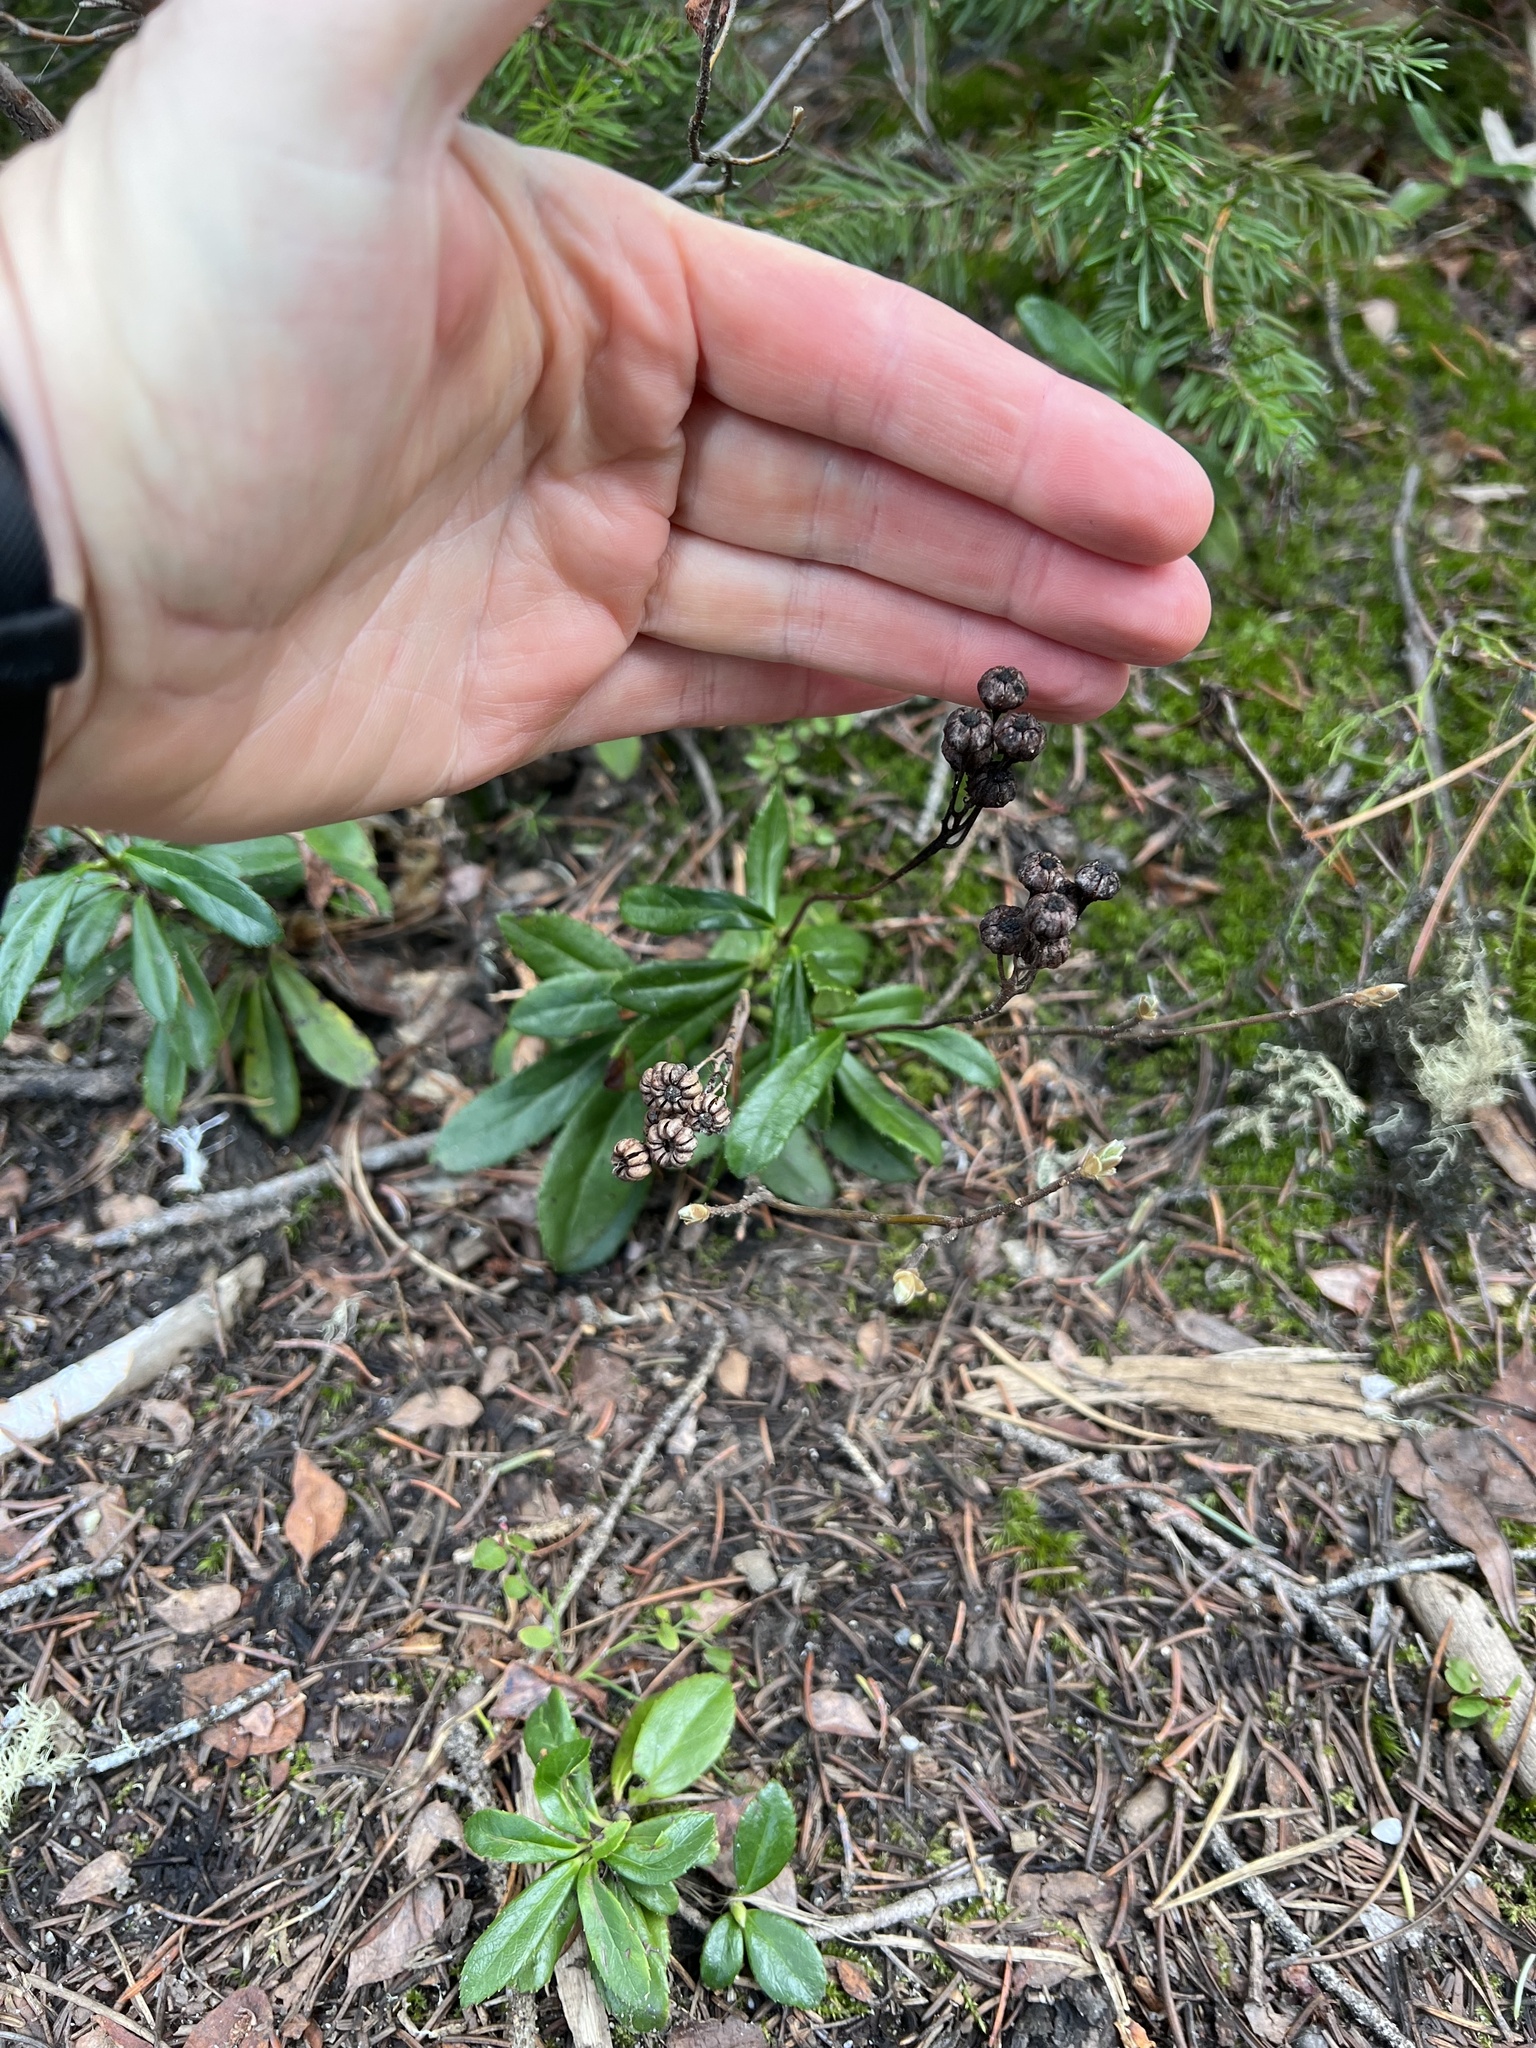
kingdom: Plantae
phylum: Tracheophyta
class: Magnoliopsida
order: Ericales
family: Ericaceae
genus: Chimaphila
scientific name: Chimaphila umbellata
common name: Pipsissewa
